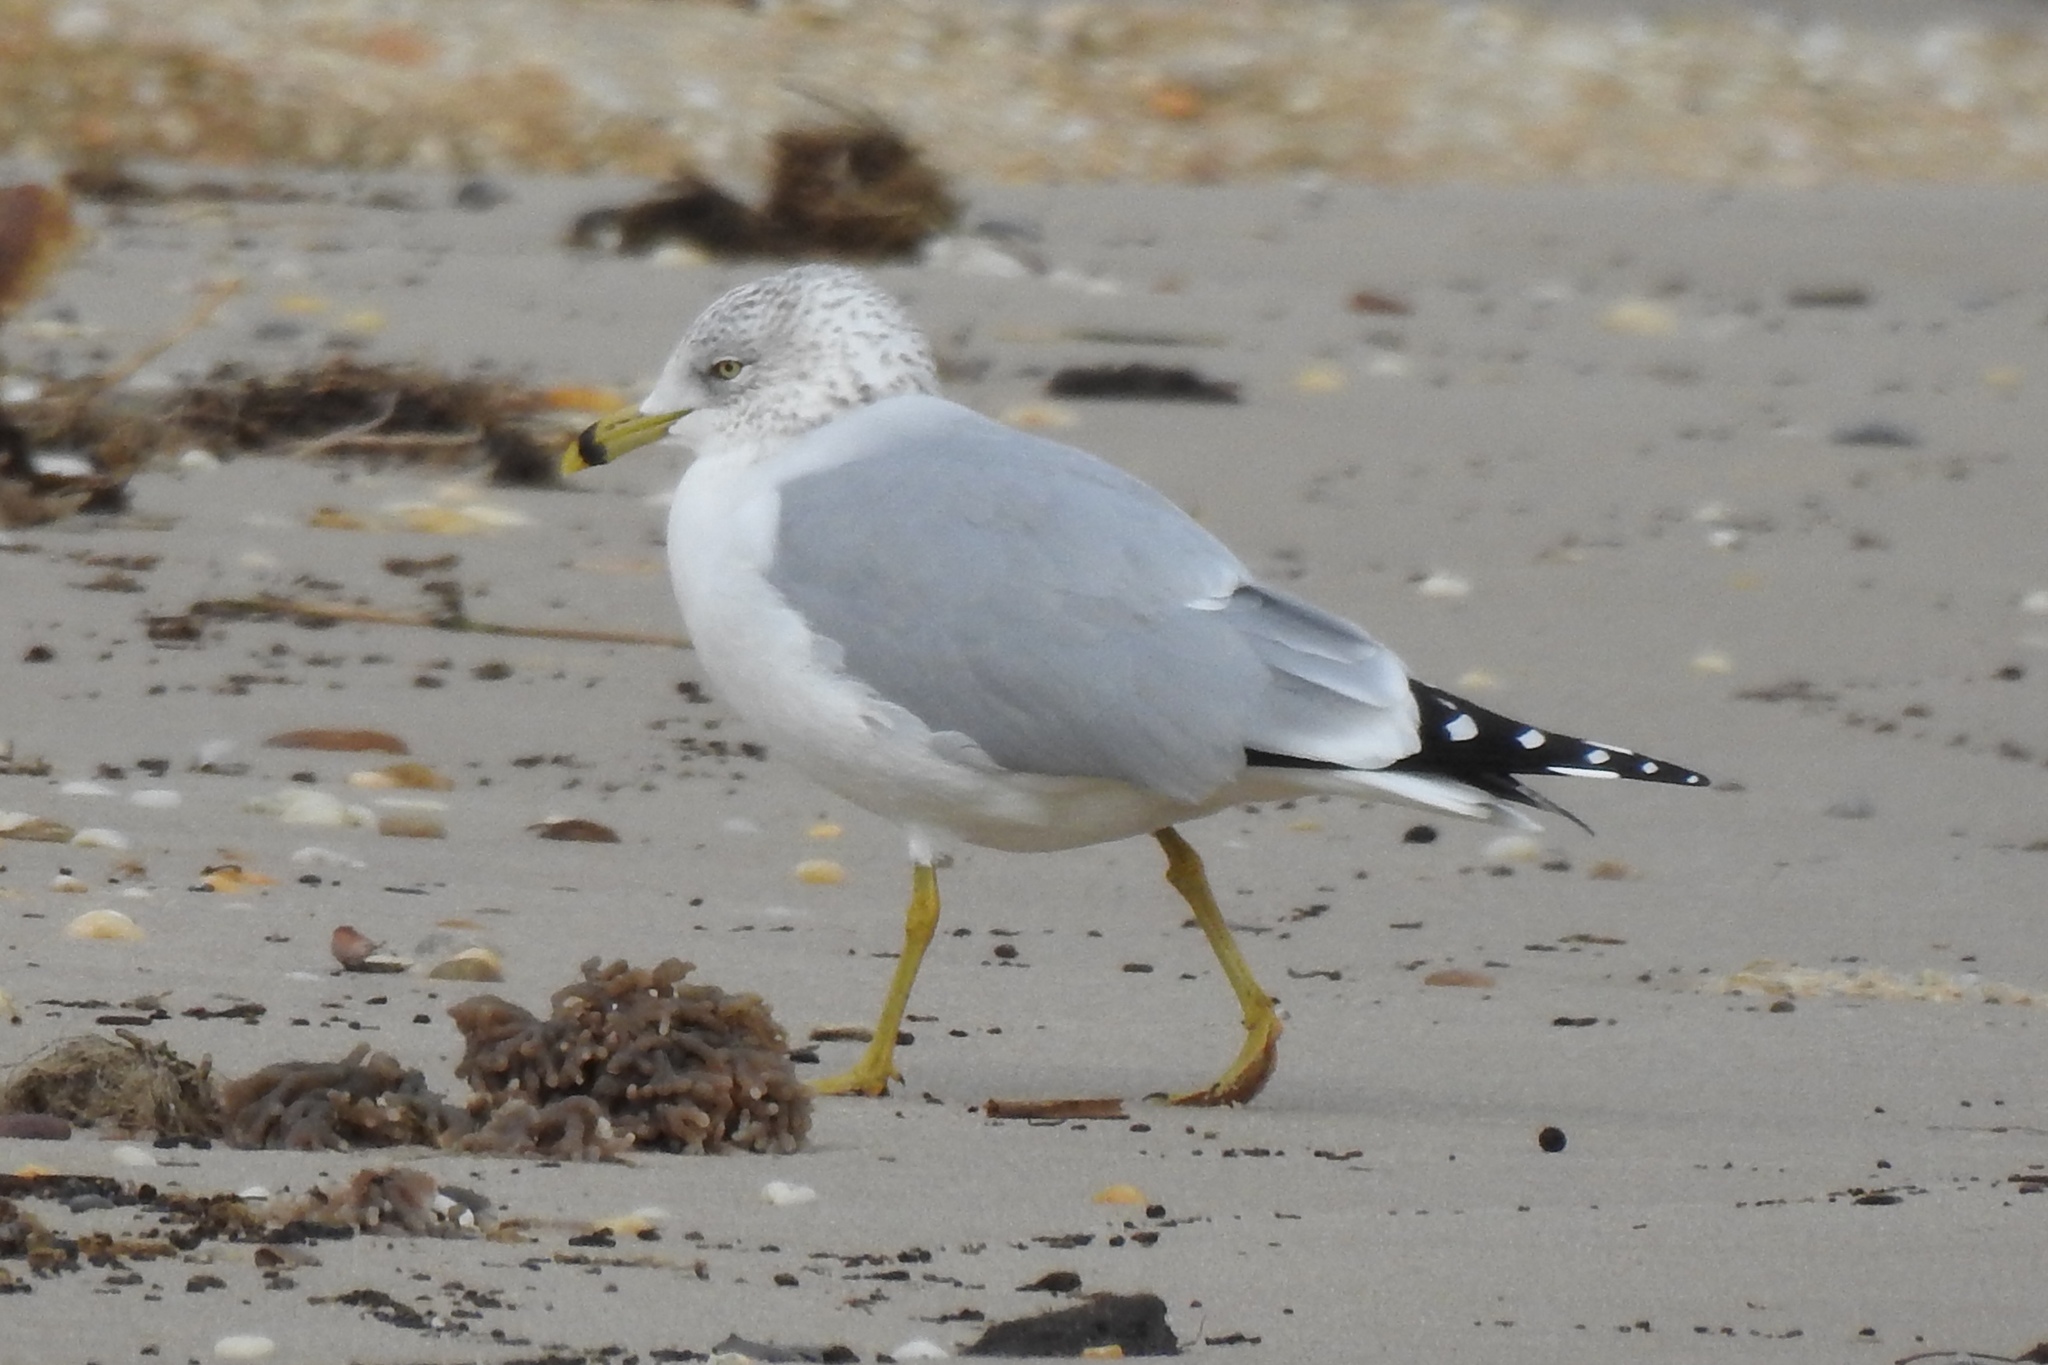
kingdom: Animalia
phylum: Chordata
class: Aves
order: Charadriiformes
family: Laridae
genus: Larus
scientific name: Larus delawarensis
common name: Ring-billed gull
